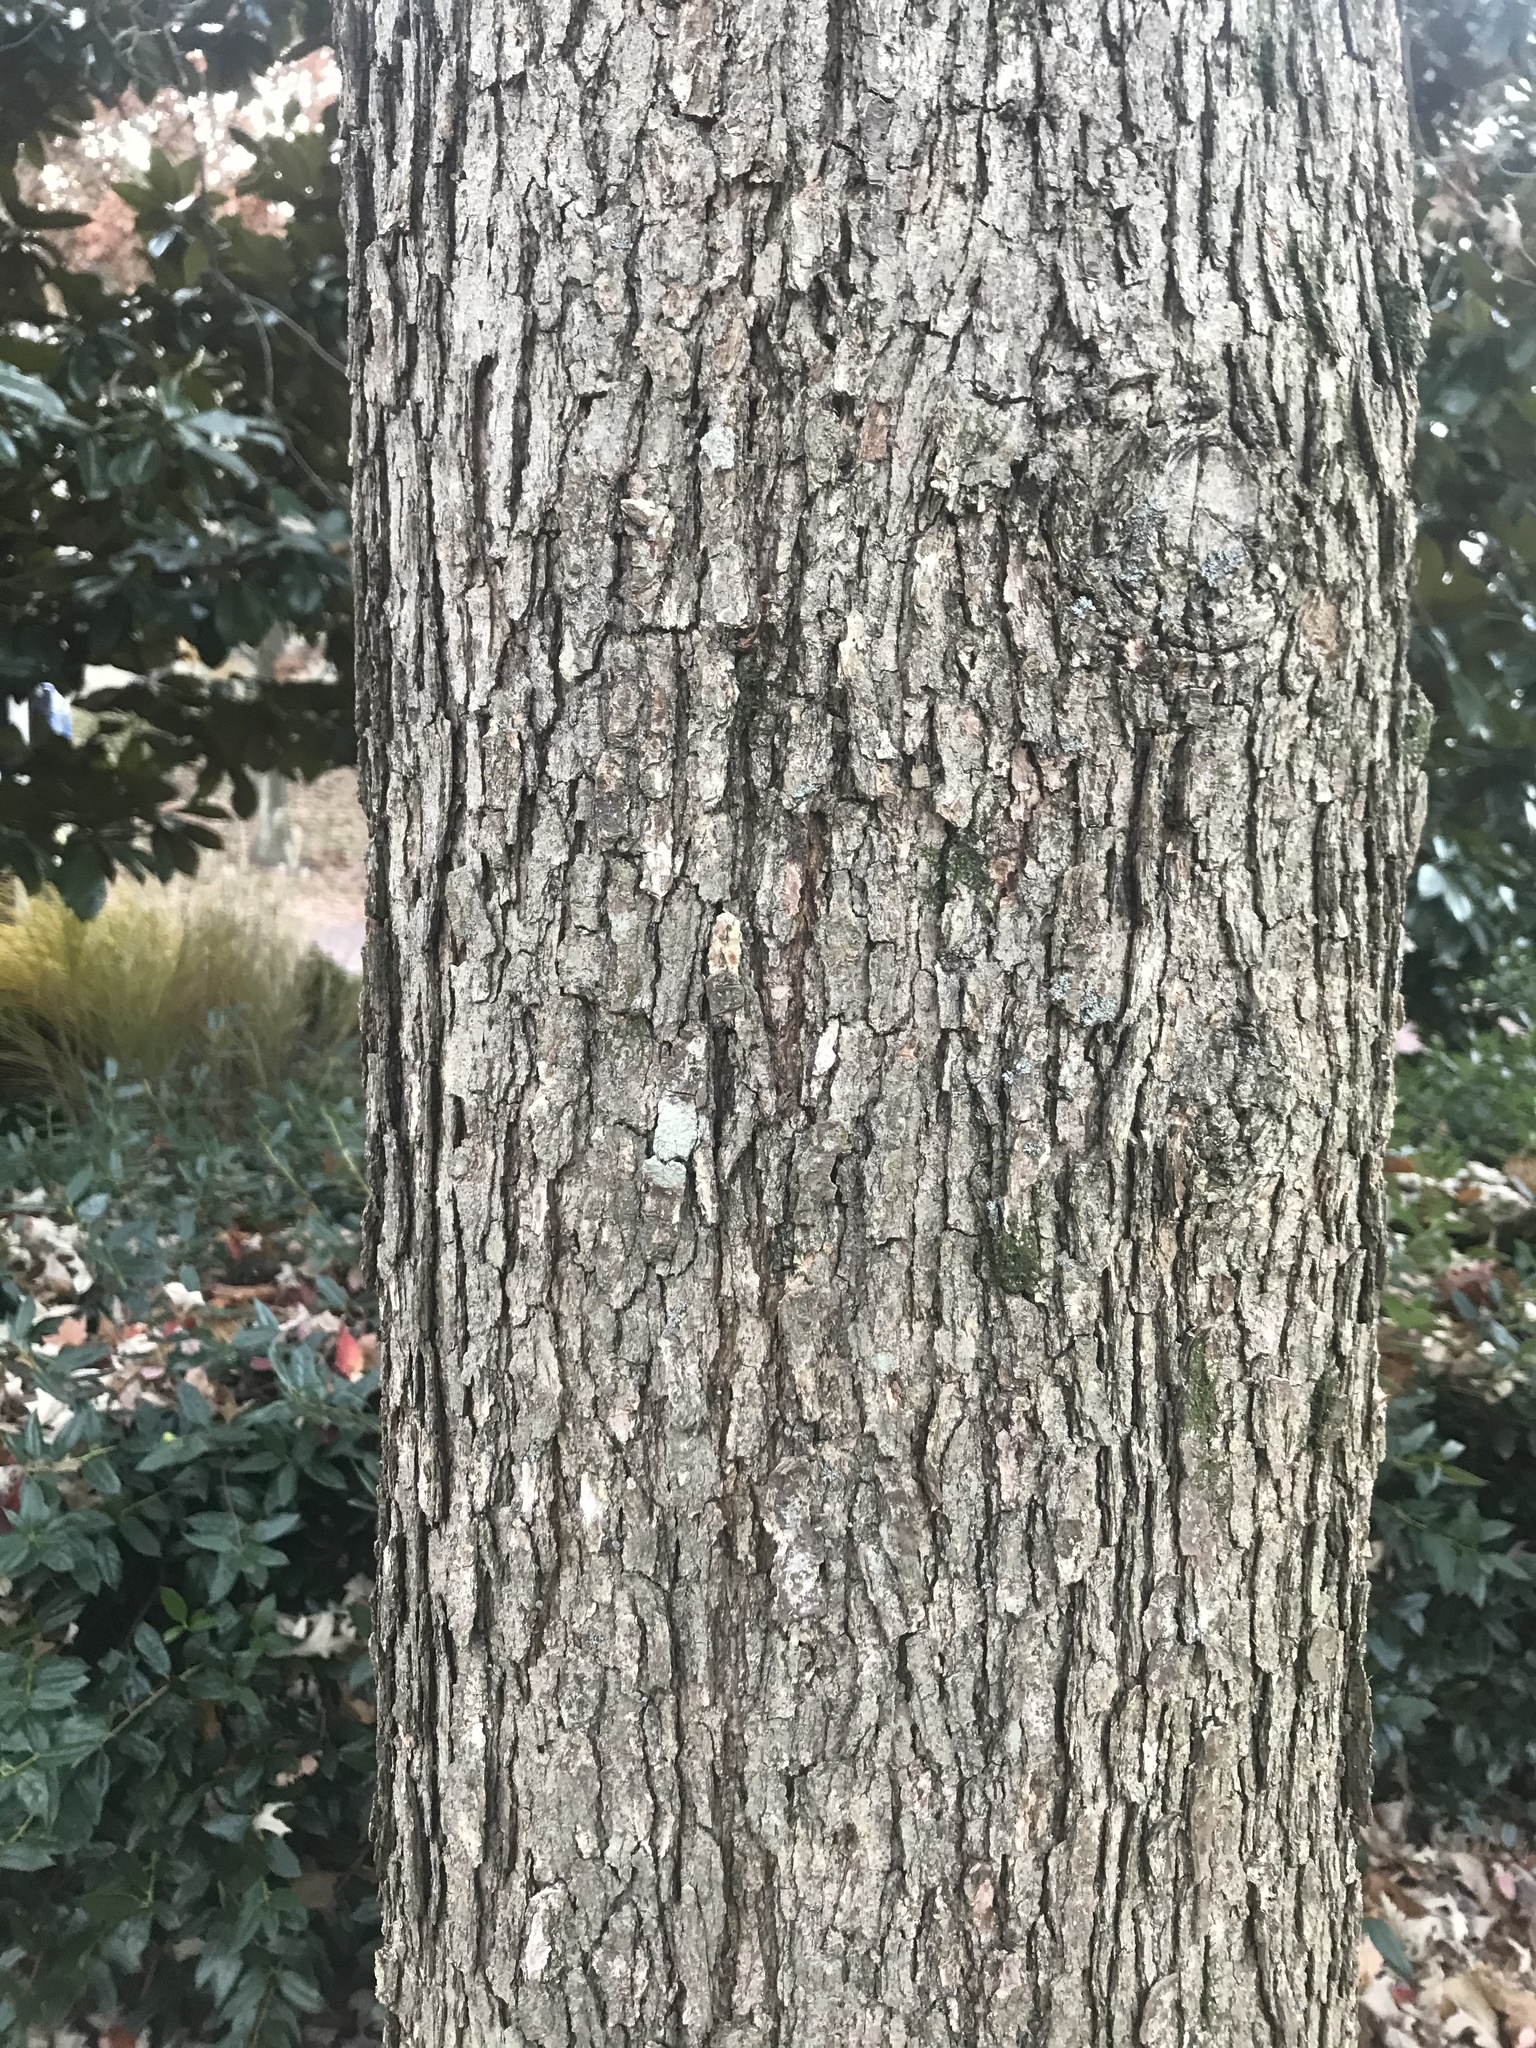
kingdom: Plantae
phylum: Tracheophyta
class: Magnoliopsida
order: Fagales
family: Fagaceae
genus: Quercus
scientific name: Quercus lyrata
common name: Overcup oak
